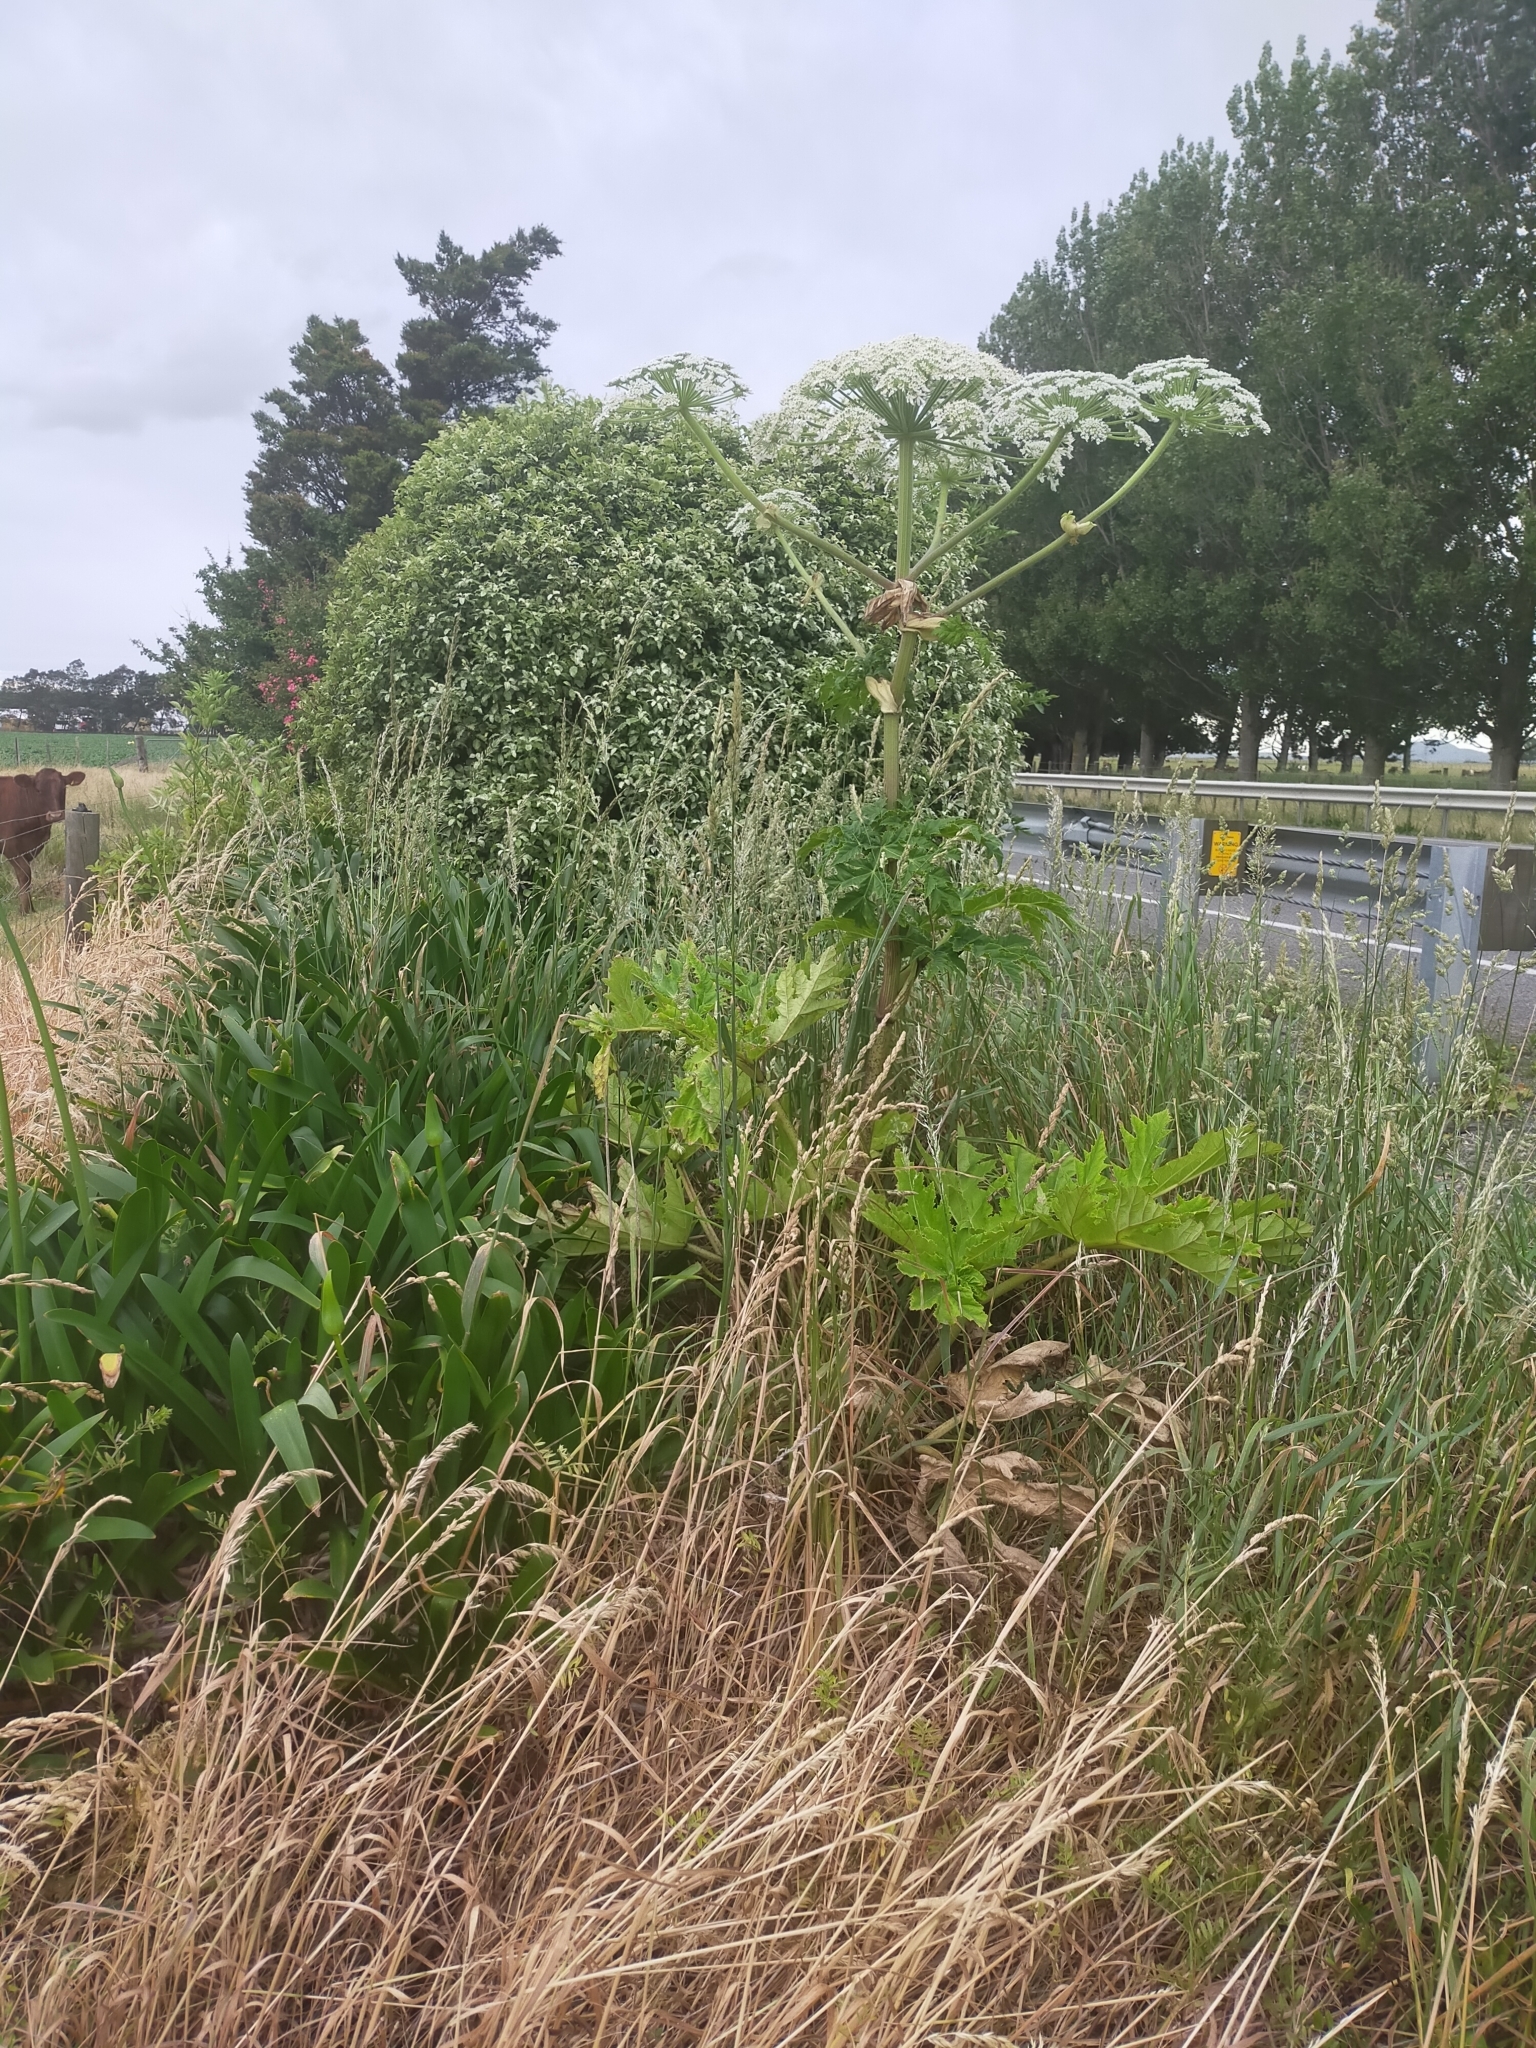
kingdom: Plantae
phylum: Tracheophyta
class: Magnoliopsida
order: Apiales
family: Apiaceae
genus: Heracleum
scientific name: Heracleum mantegazzianum
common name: Giant hogweed
